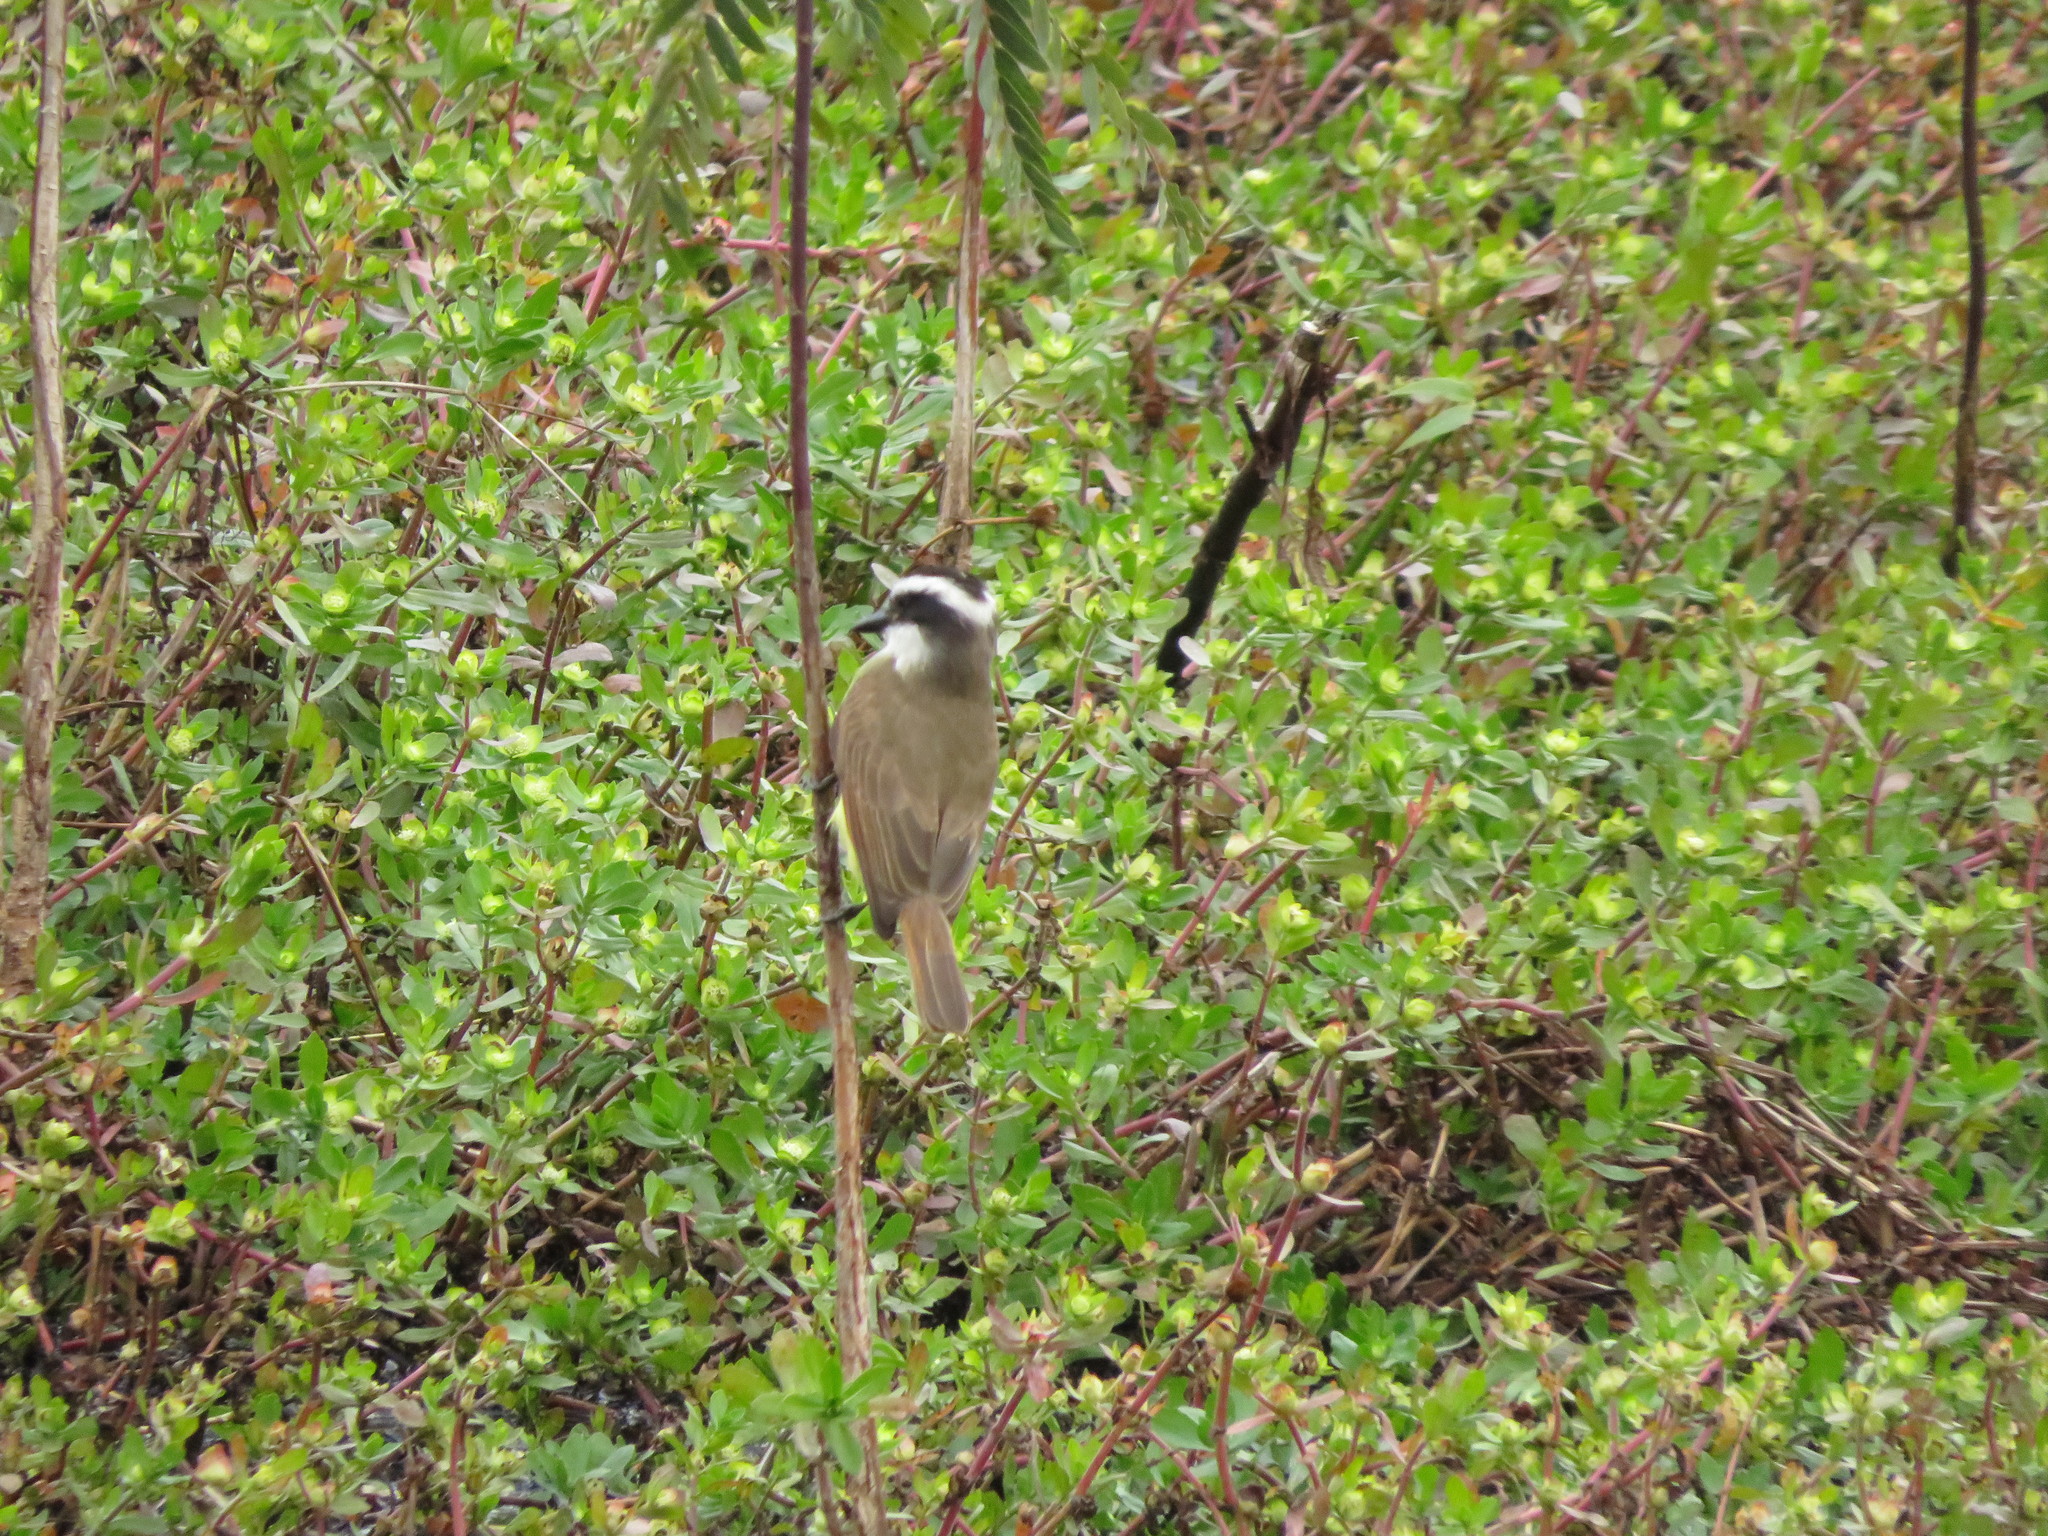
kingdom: Animalia
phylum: Chordata
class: Aves
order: Passeriformes
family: Tyrannidae
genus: Pitangus
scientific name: Pitangus sulphuratus
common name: Great kiskadee
